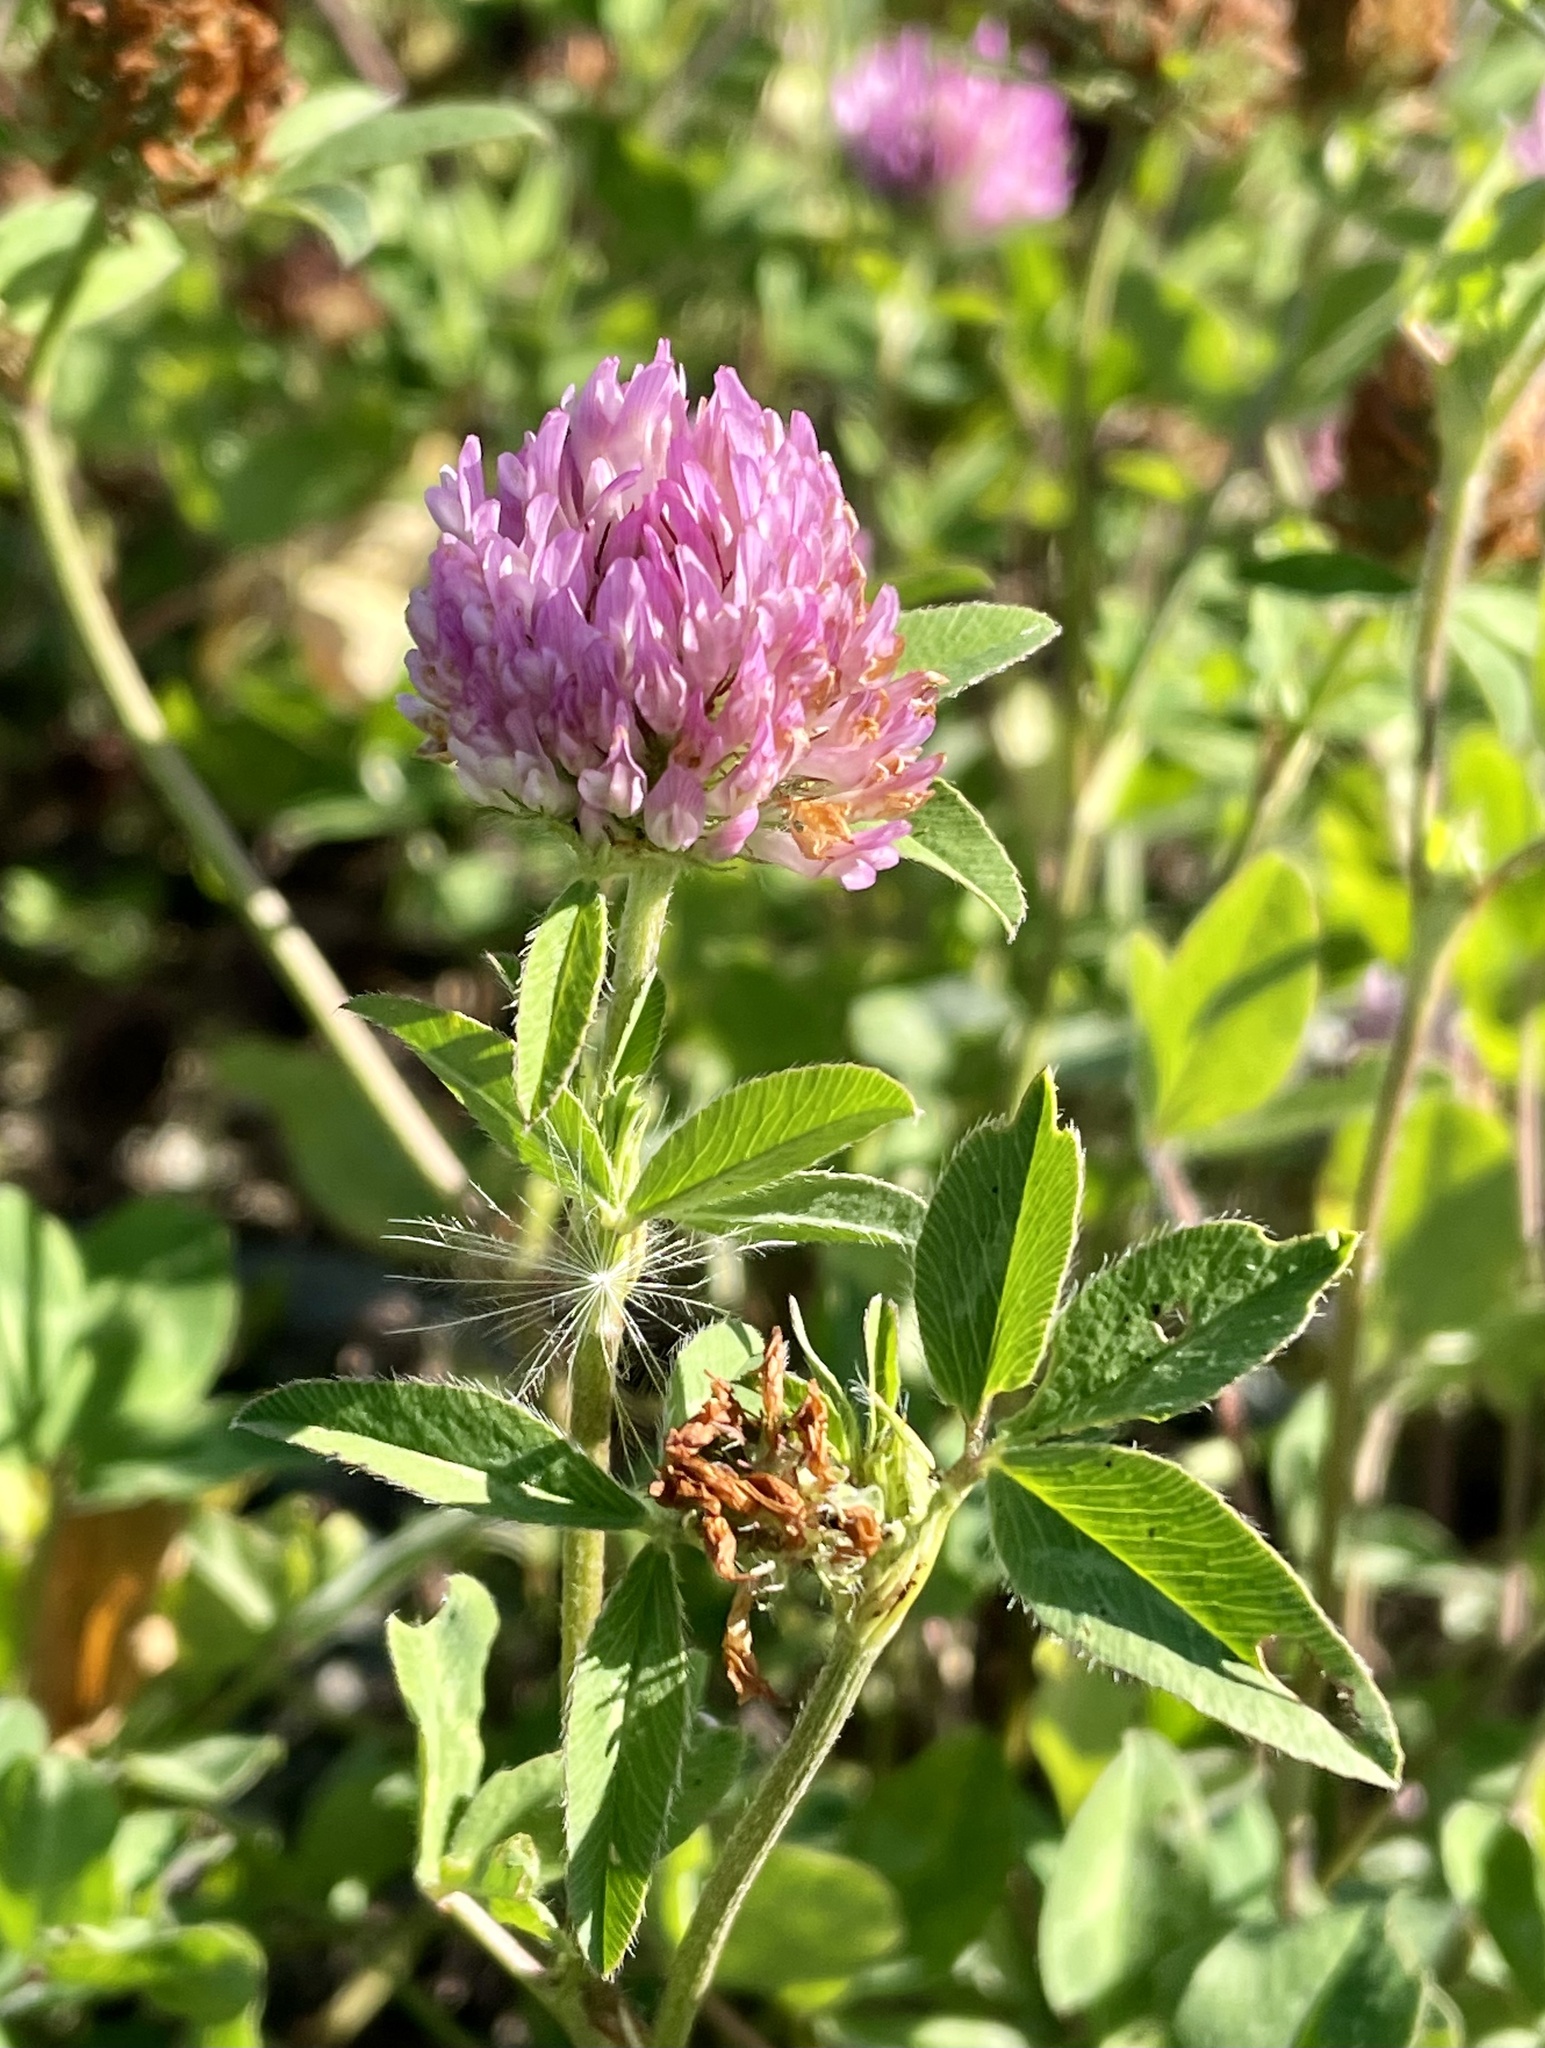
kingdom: Plantae
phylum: Tracheophyta
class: Magnoliopsida
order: Fabales
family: Fabaceae
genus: Trifolium
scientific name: Trifolium pratense
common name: Red clover
